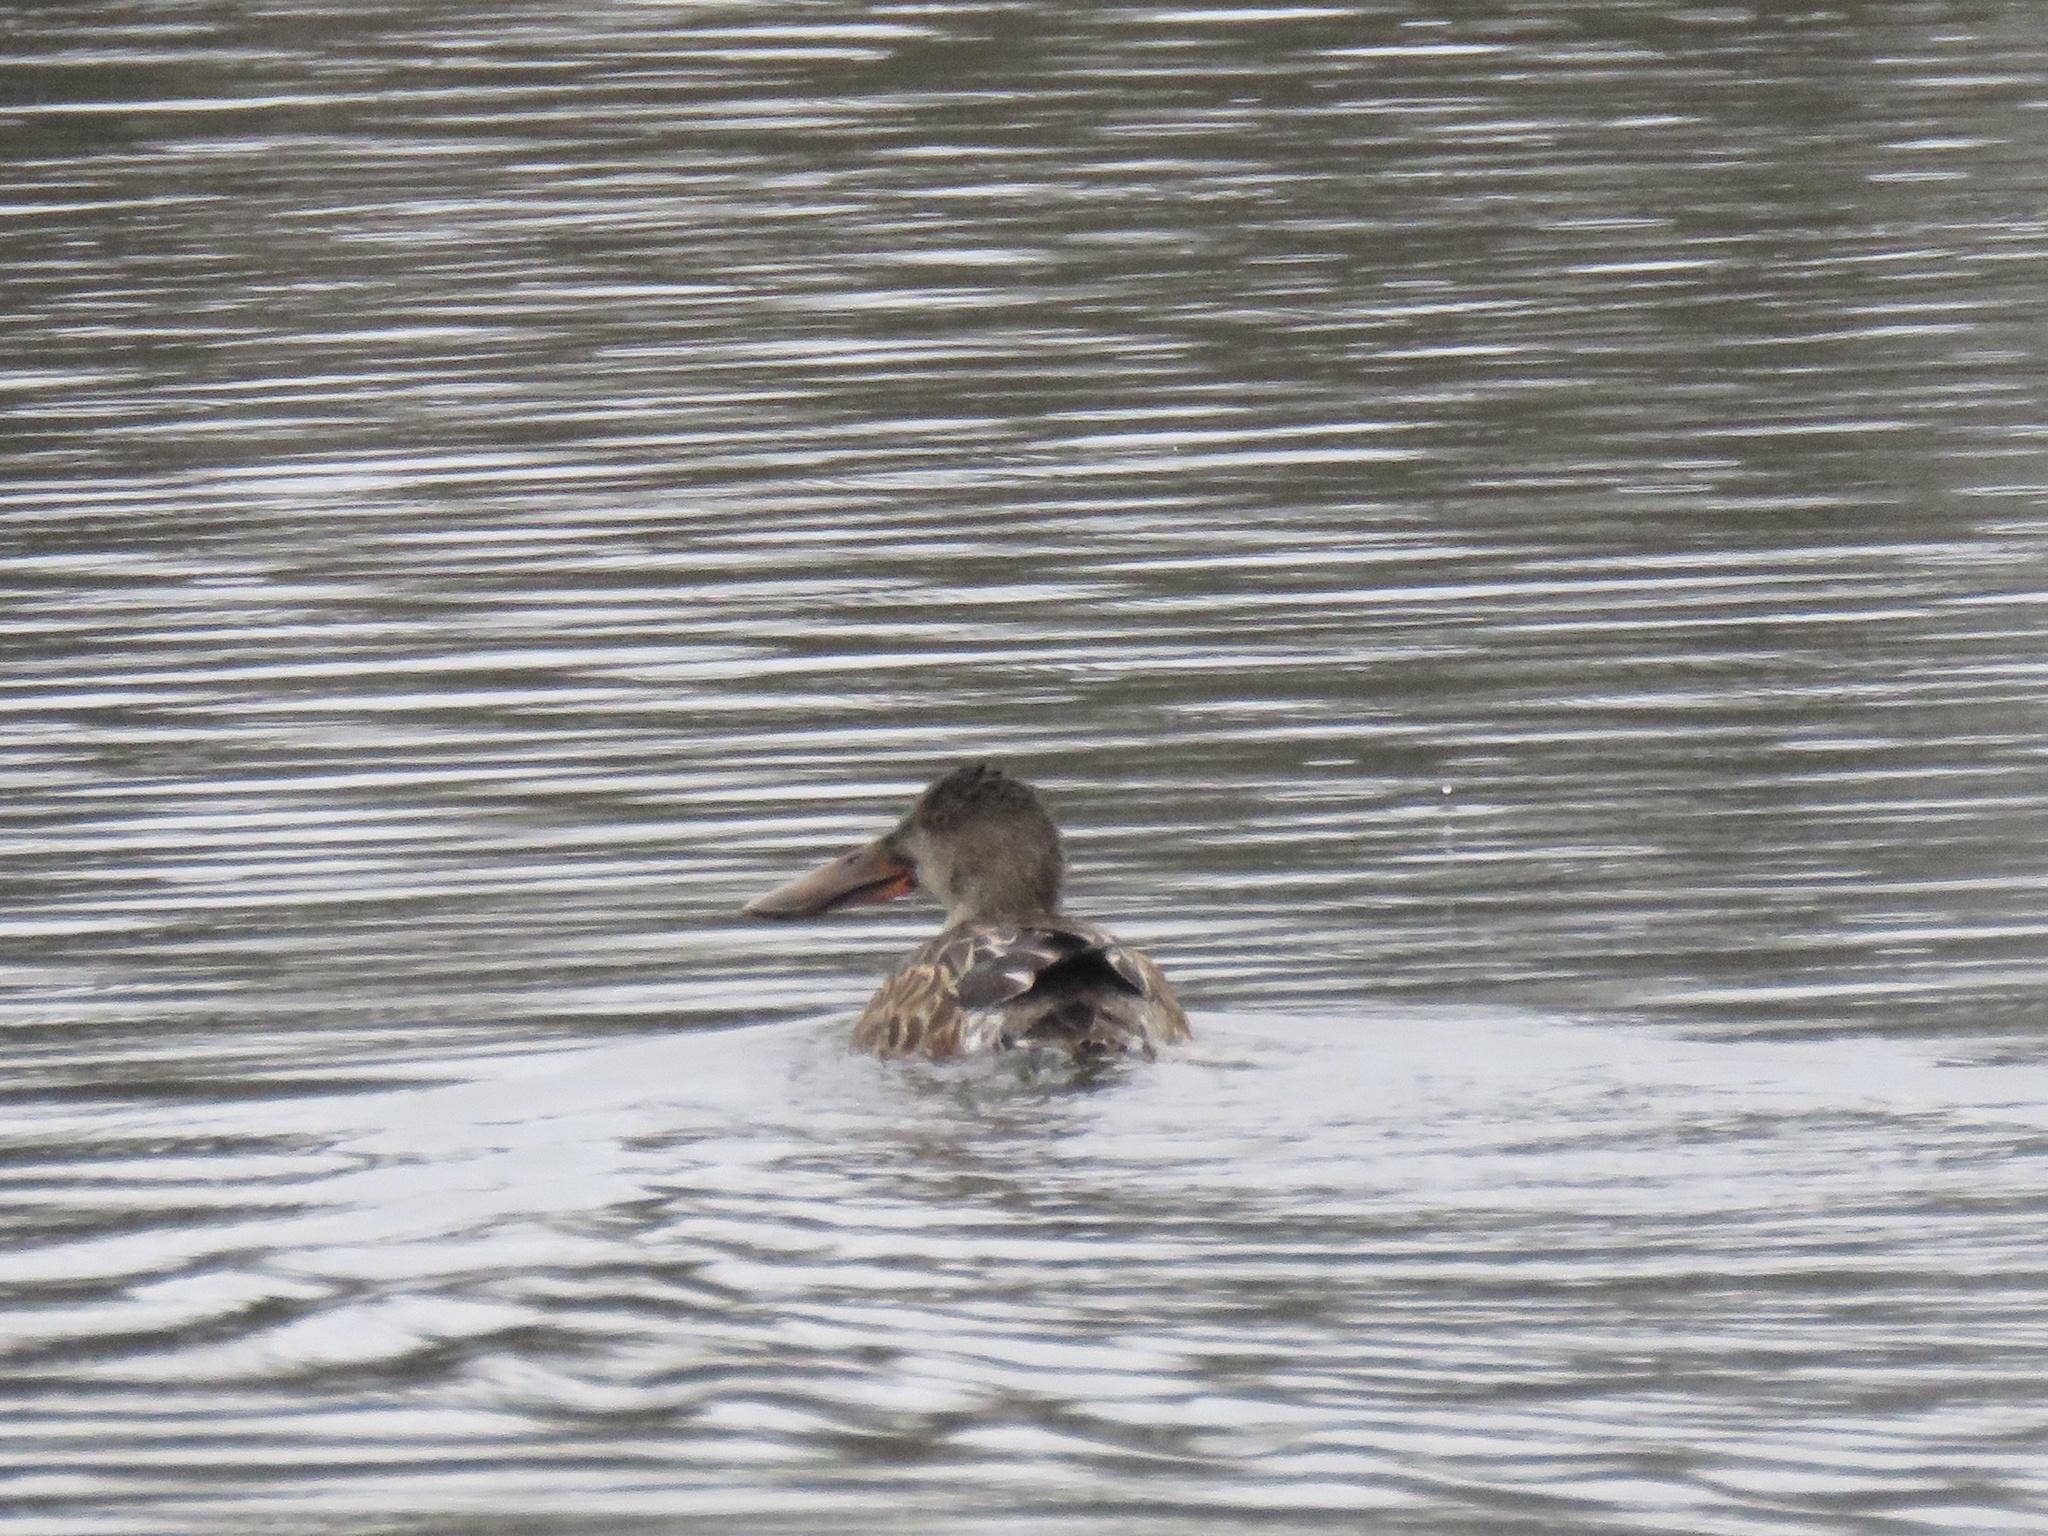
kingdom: Animalia
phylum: Chordata
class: Aves
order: Anseriformes
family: Anatidae
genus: Spatula
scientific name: Spatula clypeata
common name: Northern shoveler
